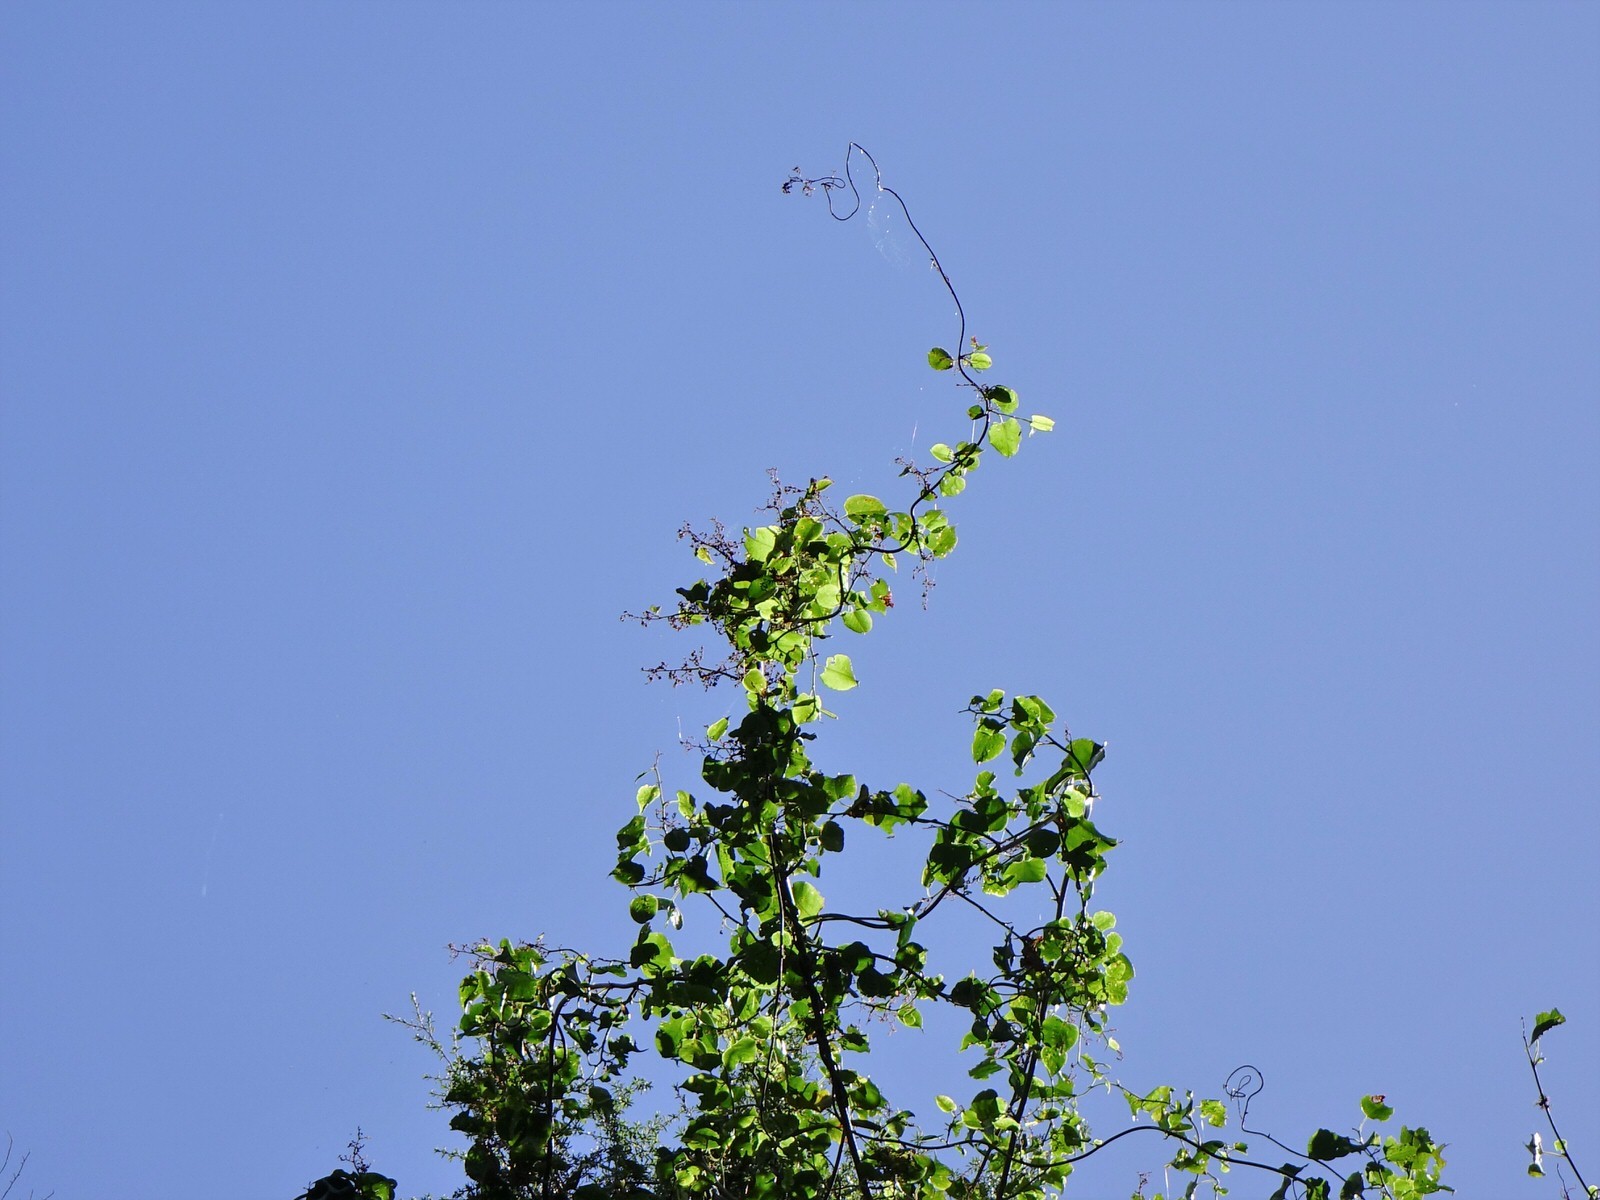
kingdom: Plantae
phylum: Tracheophyta
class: Magnoliopsida
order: Caryophyllales
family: Polygonaceae
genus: Muehlenbeckia
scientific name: Muehlenbeckia australis
